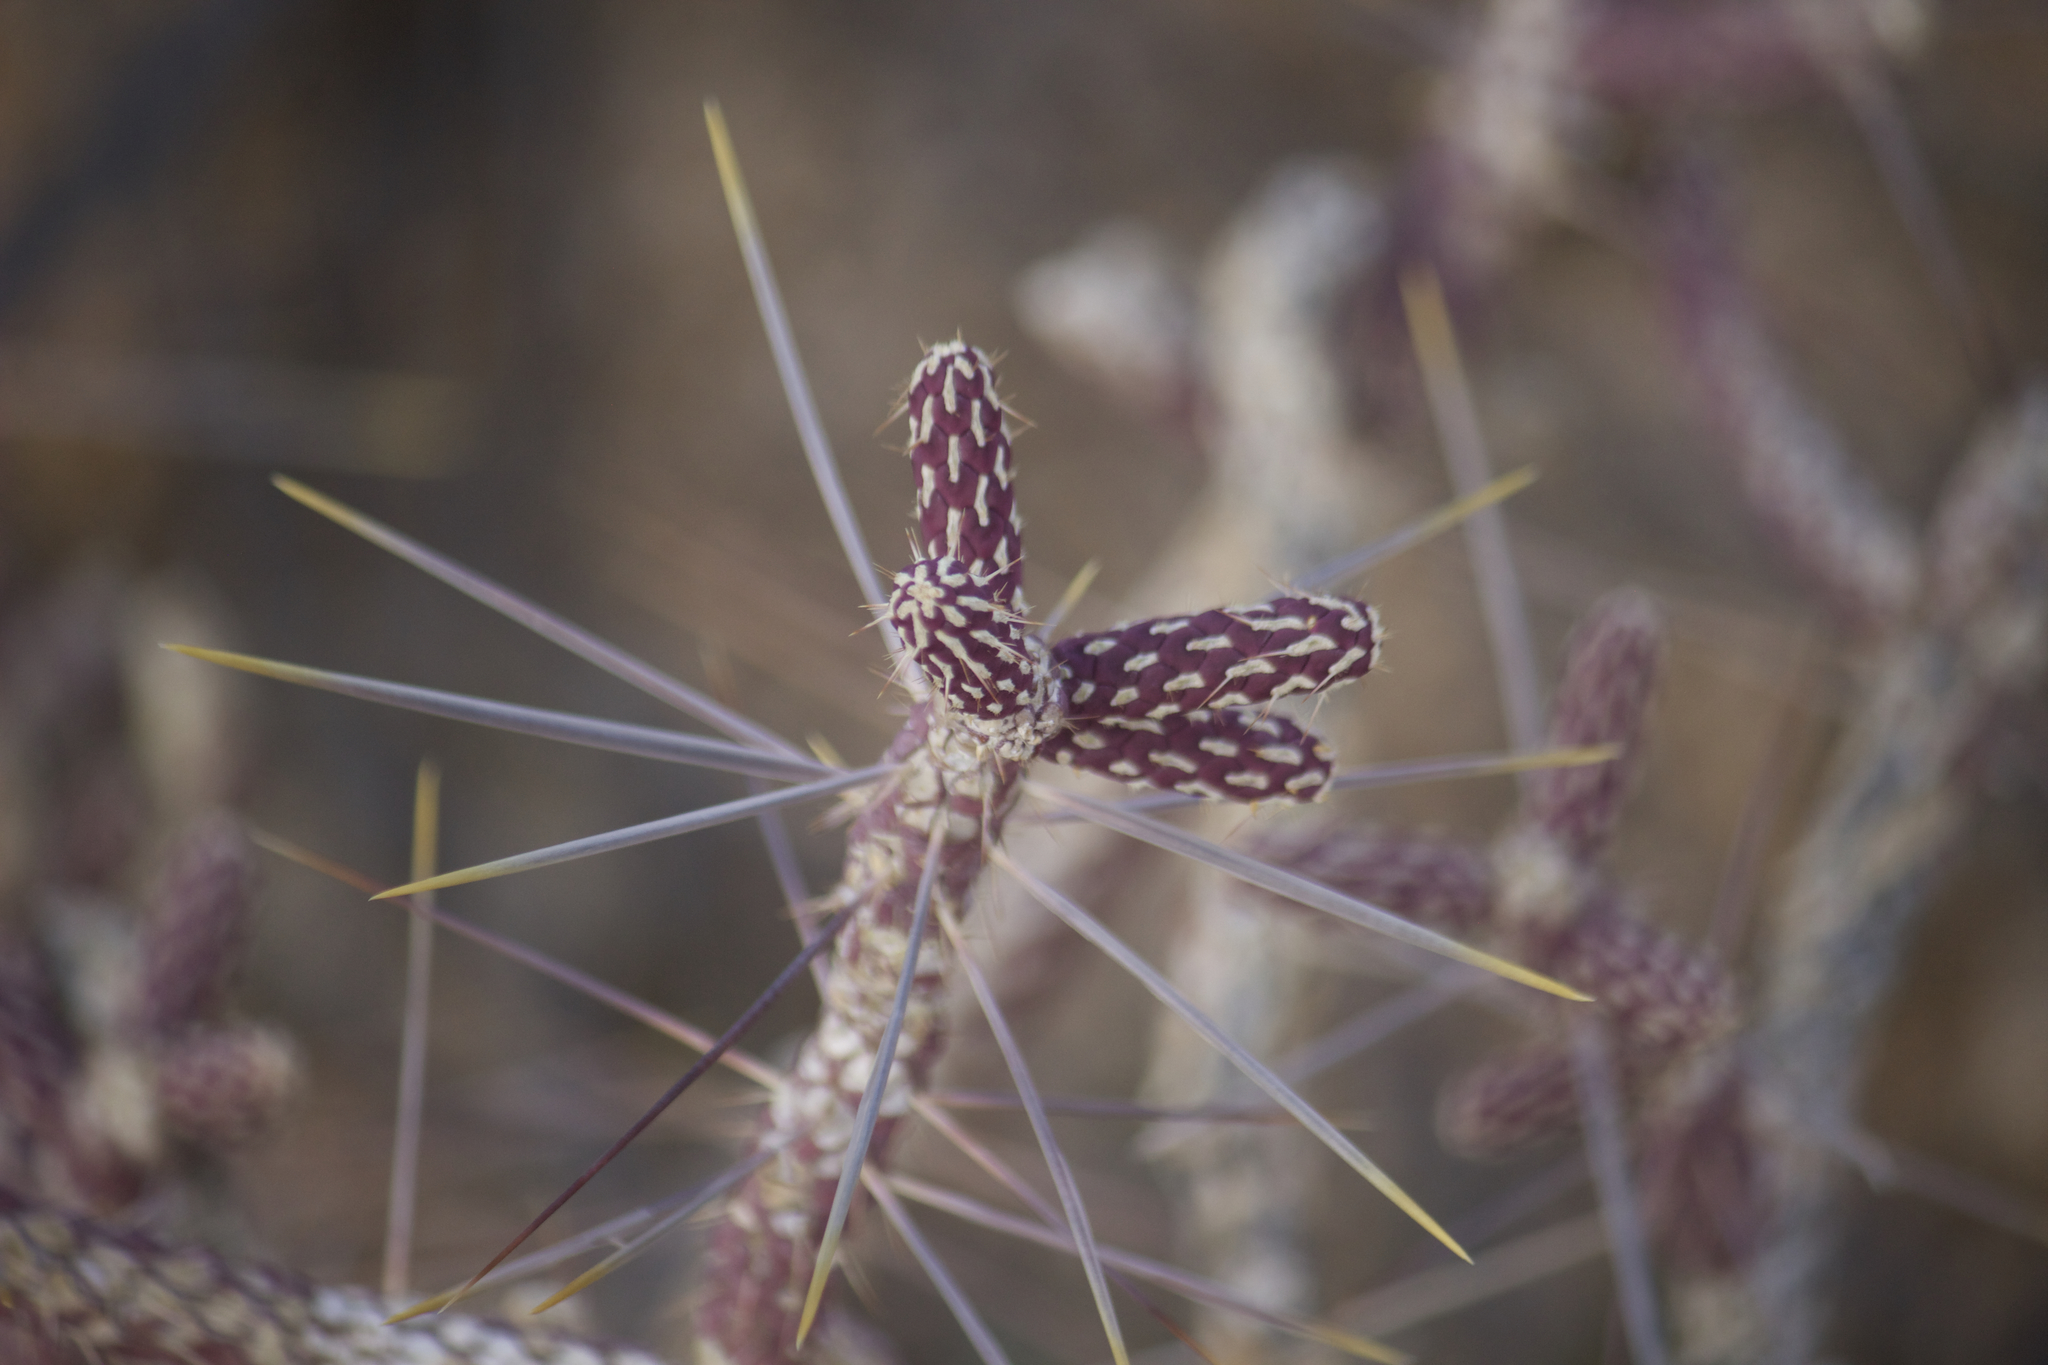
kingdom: Plantae
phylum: Tracheophyta
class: Magnoliopsida
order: Caryophyllales
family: Cactaceae
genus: Cylindropuntia
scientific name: Cylindropuntia ramosissima
